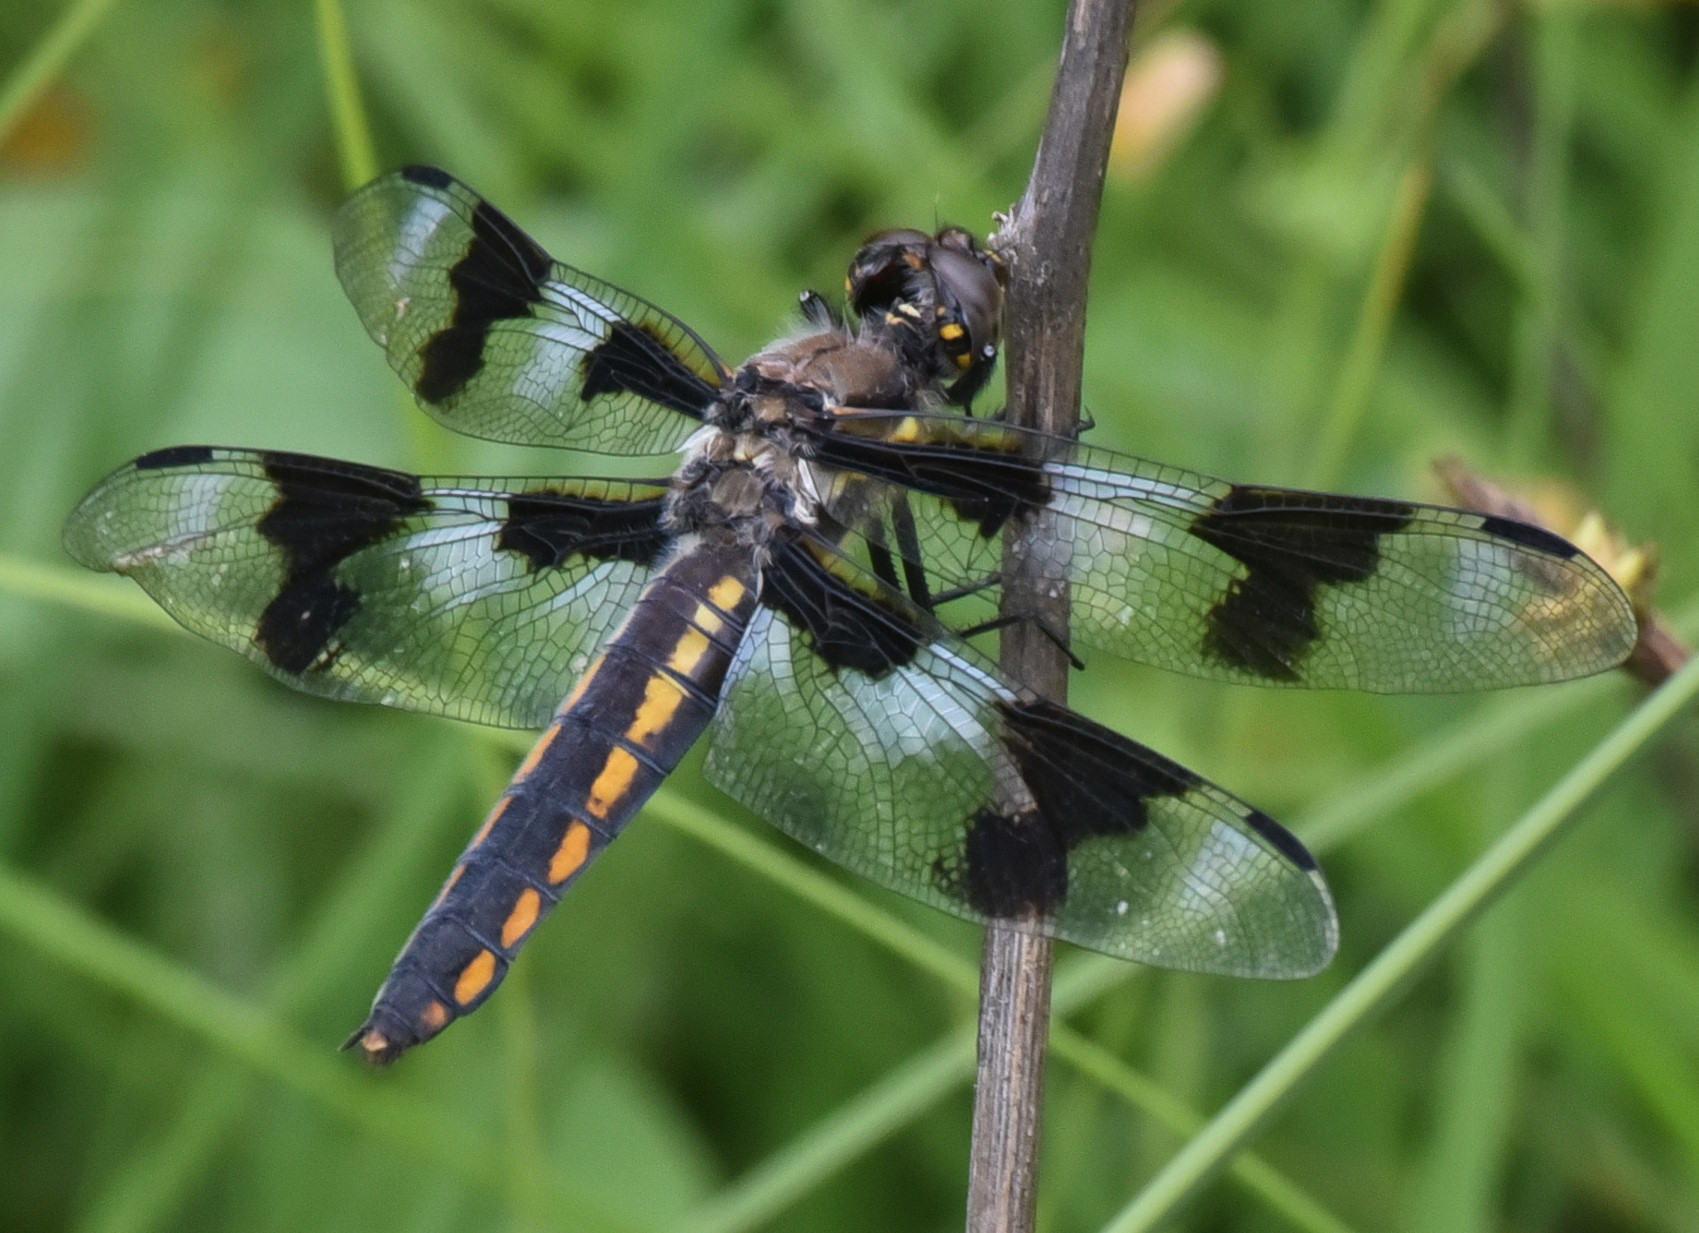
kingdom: Animalia
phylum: Arthropoda
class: Insecta
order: Odonata
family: Libellulidae
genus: Libellula
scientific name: Libellula forensis
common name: Eight-spotted skimmer
